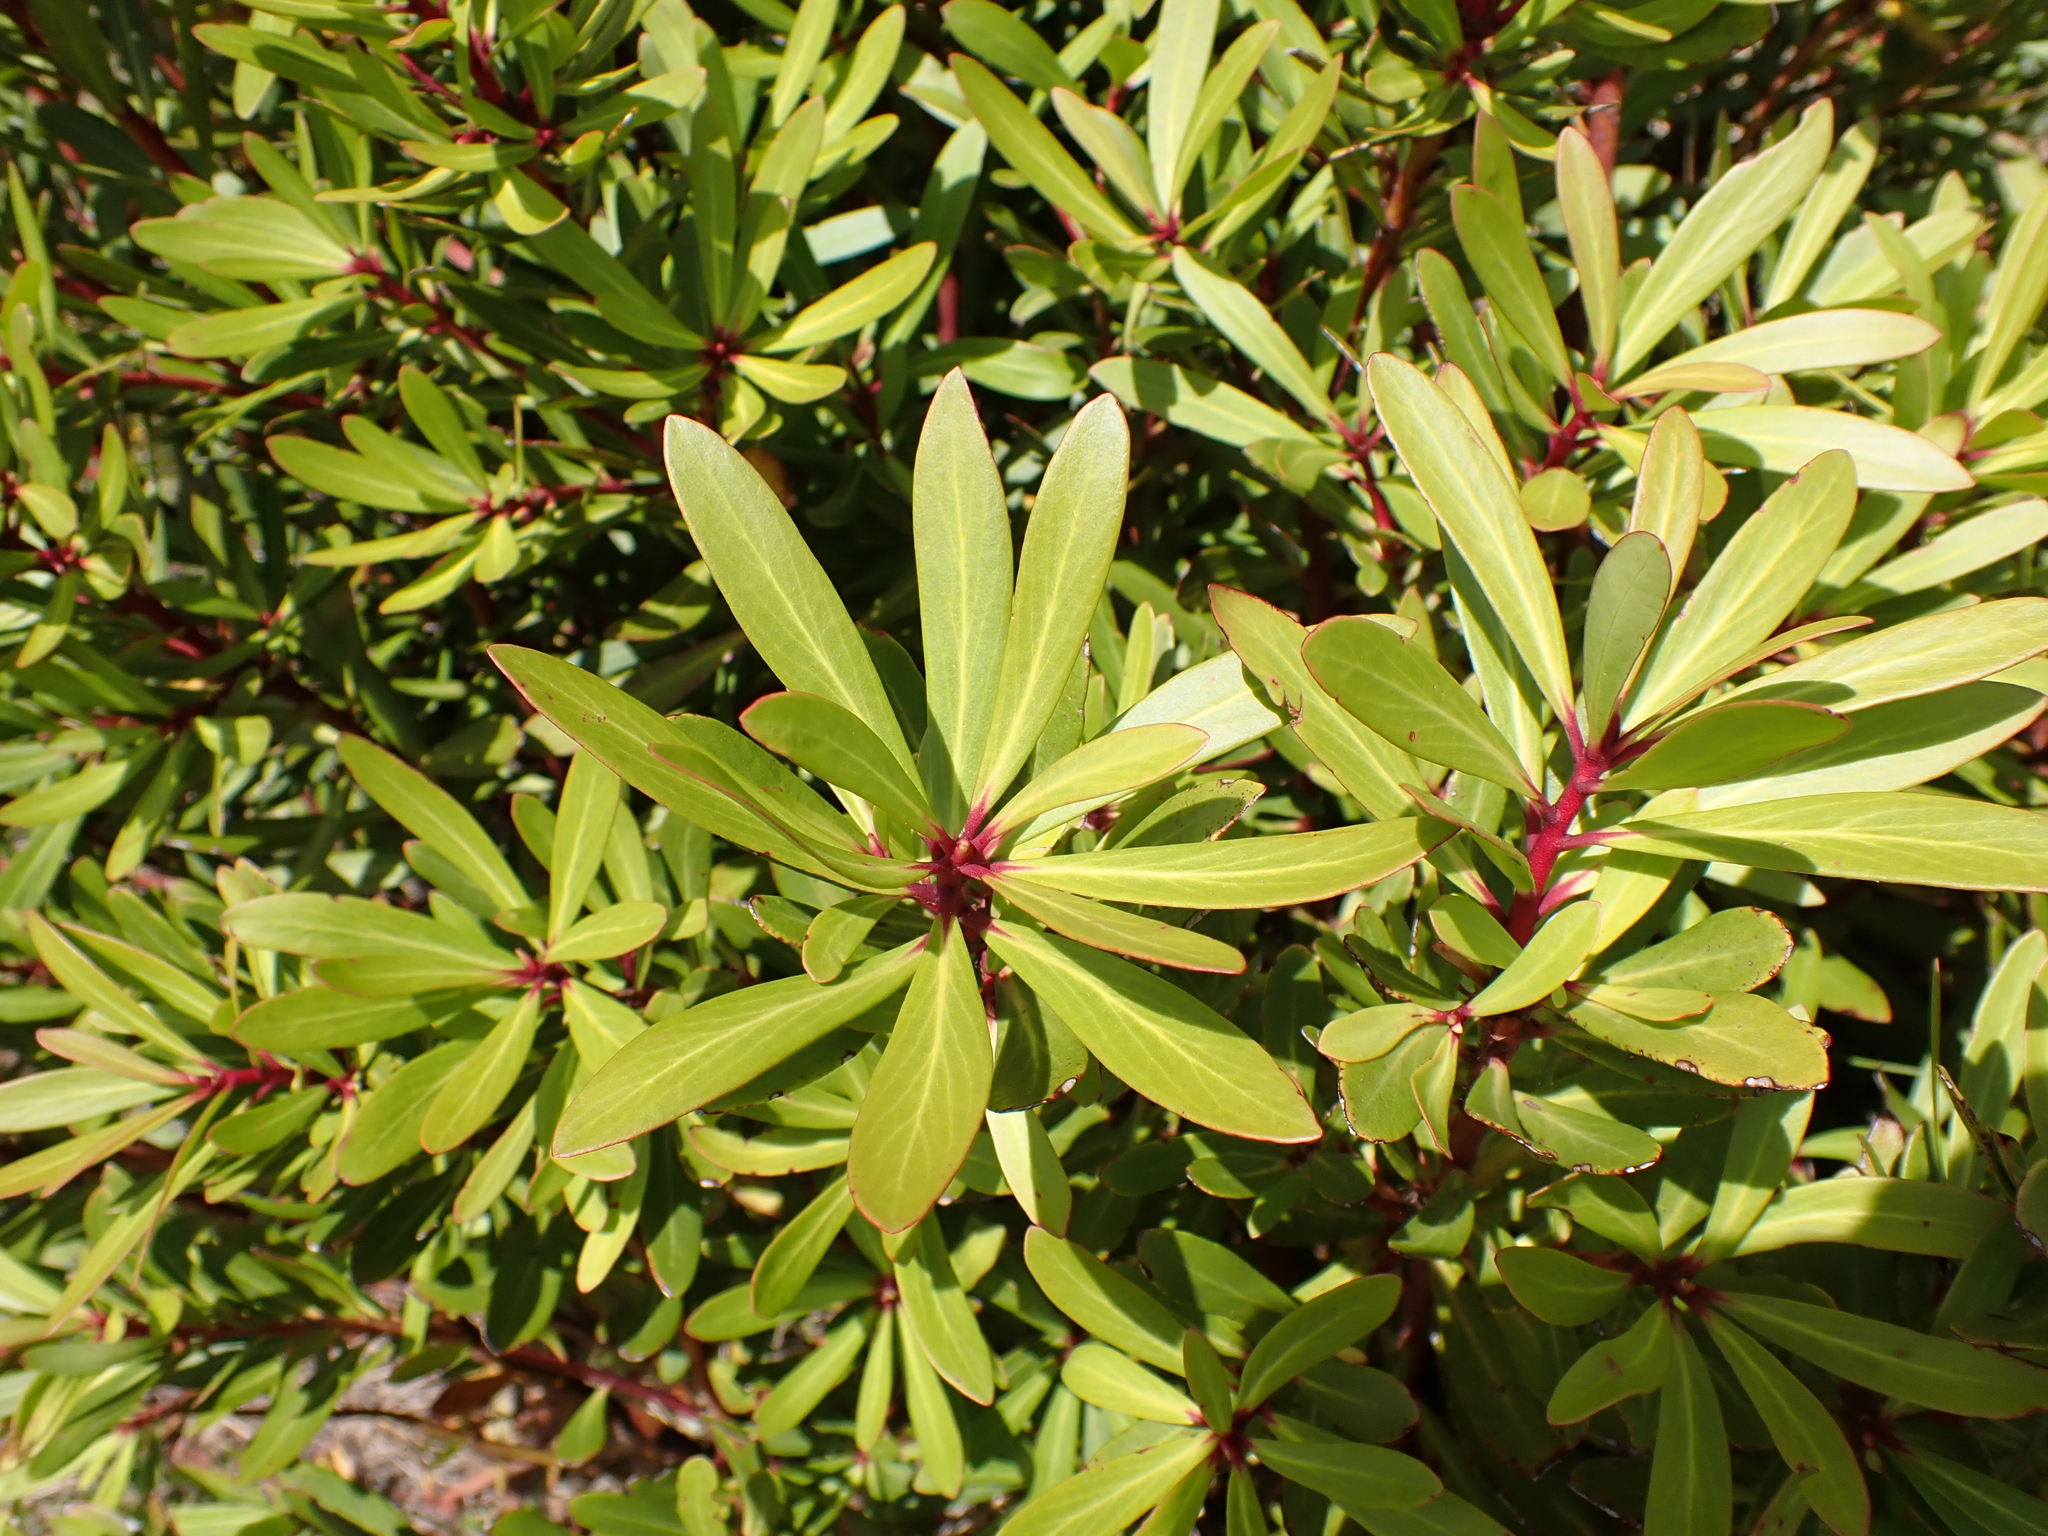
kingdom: Plantae
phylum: Tracheophyta
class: Magnoliopsida
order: Canellales
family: Winteraceae
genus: Drimys
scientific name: Drimys xerophila
